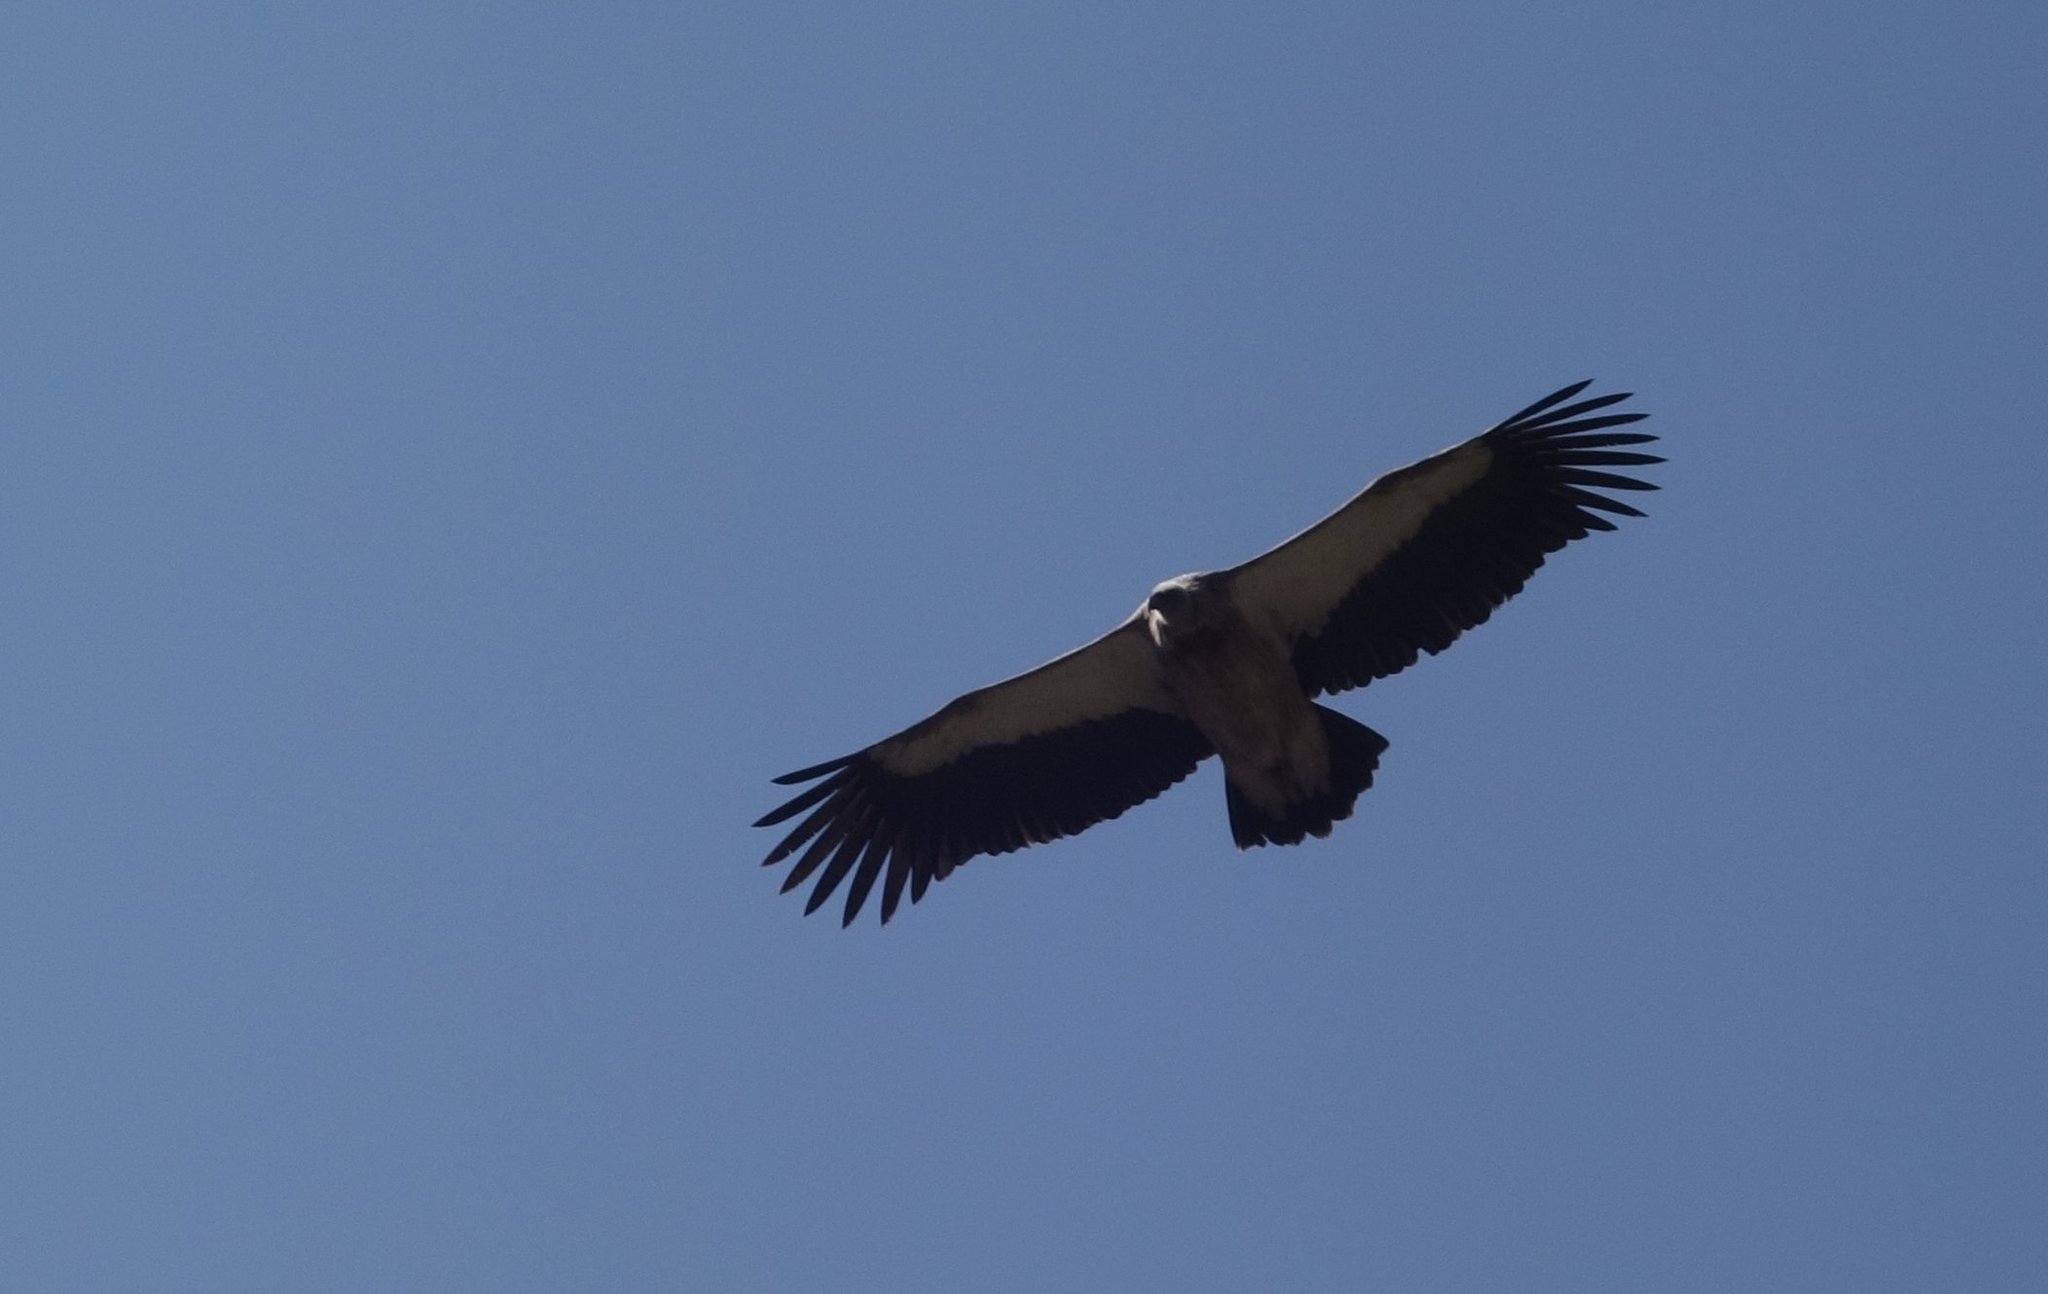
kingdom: Animalia
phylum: Chordata
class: Aves
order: Accipitriformes
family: Accipitridae
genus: Gyps
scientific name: Gyps himalayensis
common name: Himalayan griffon
